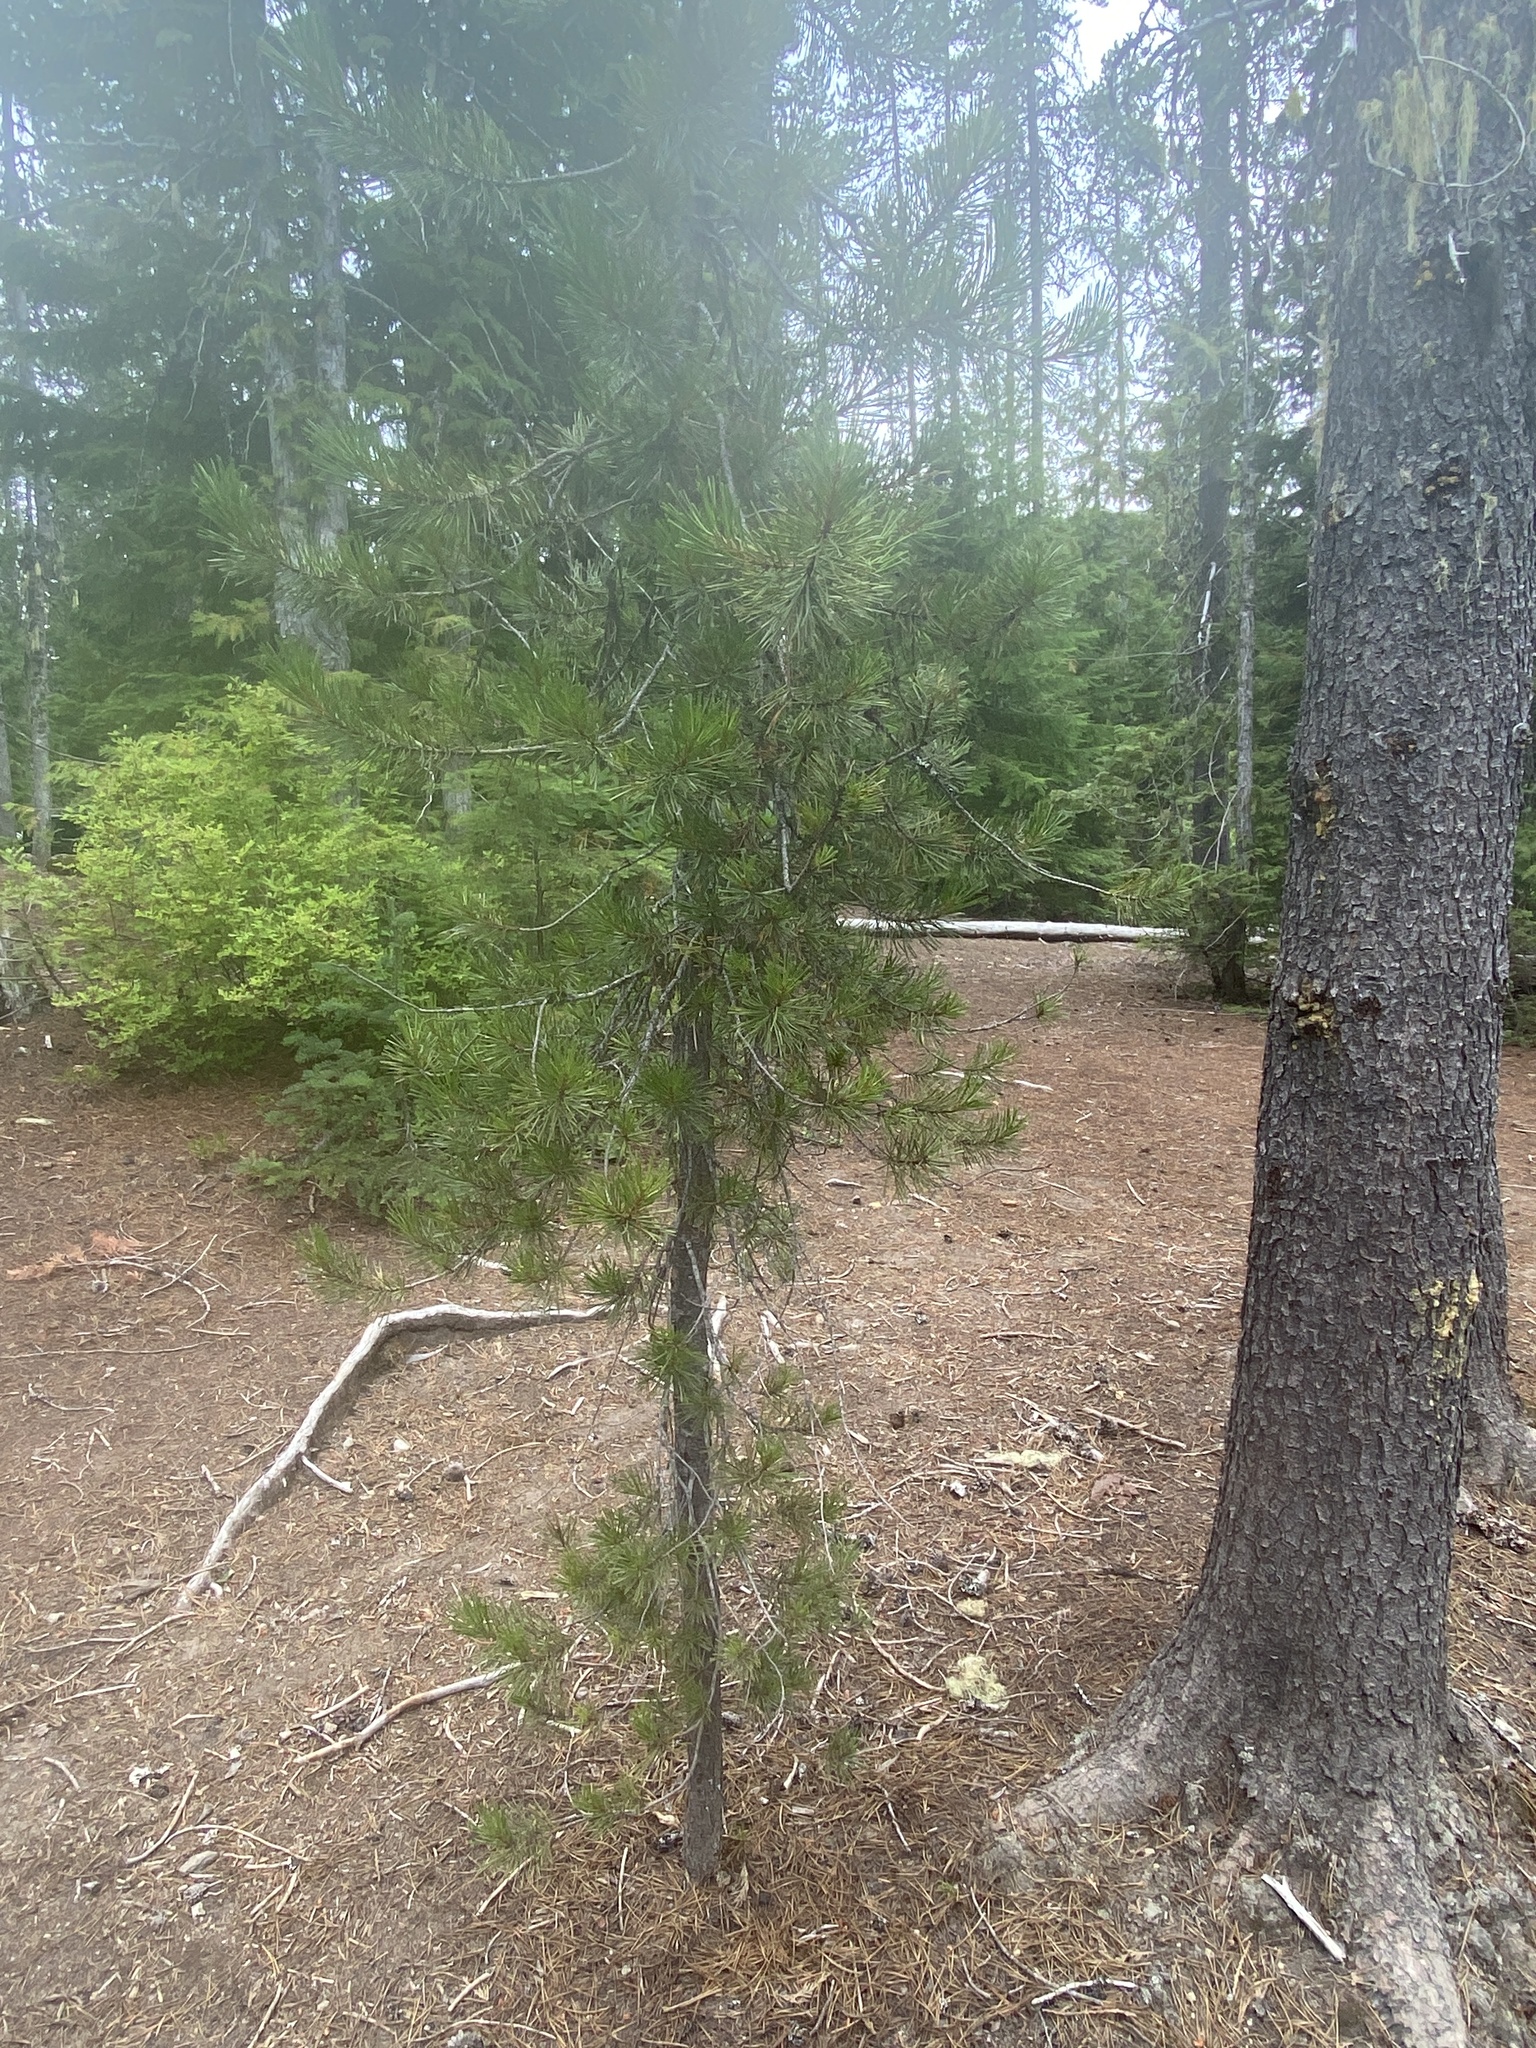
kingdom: Plantae
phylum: Tracheophyta
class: Pinopsida
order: Pinales
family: Pinaceae
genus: Pinus
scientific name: Pinus contorta
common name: Lodgepole pine
